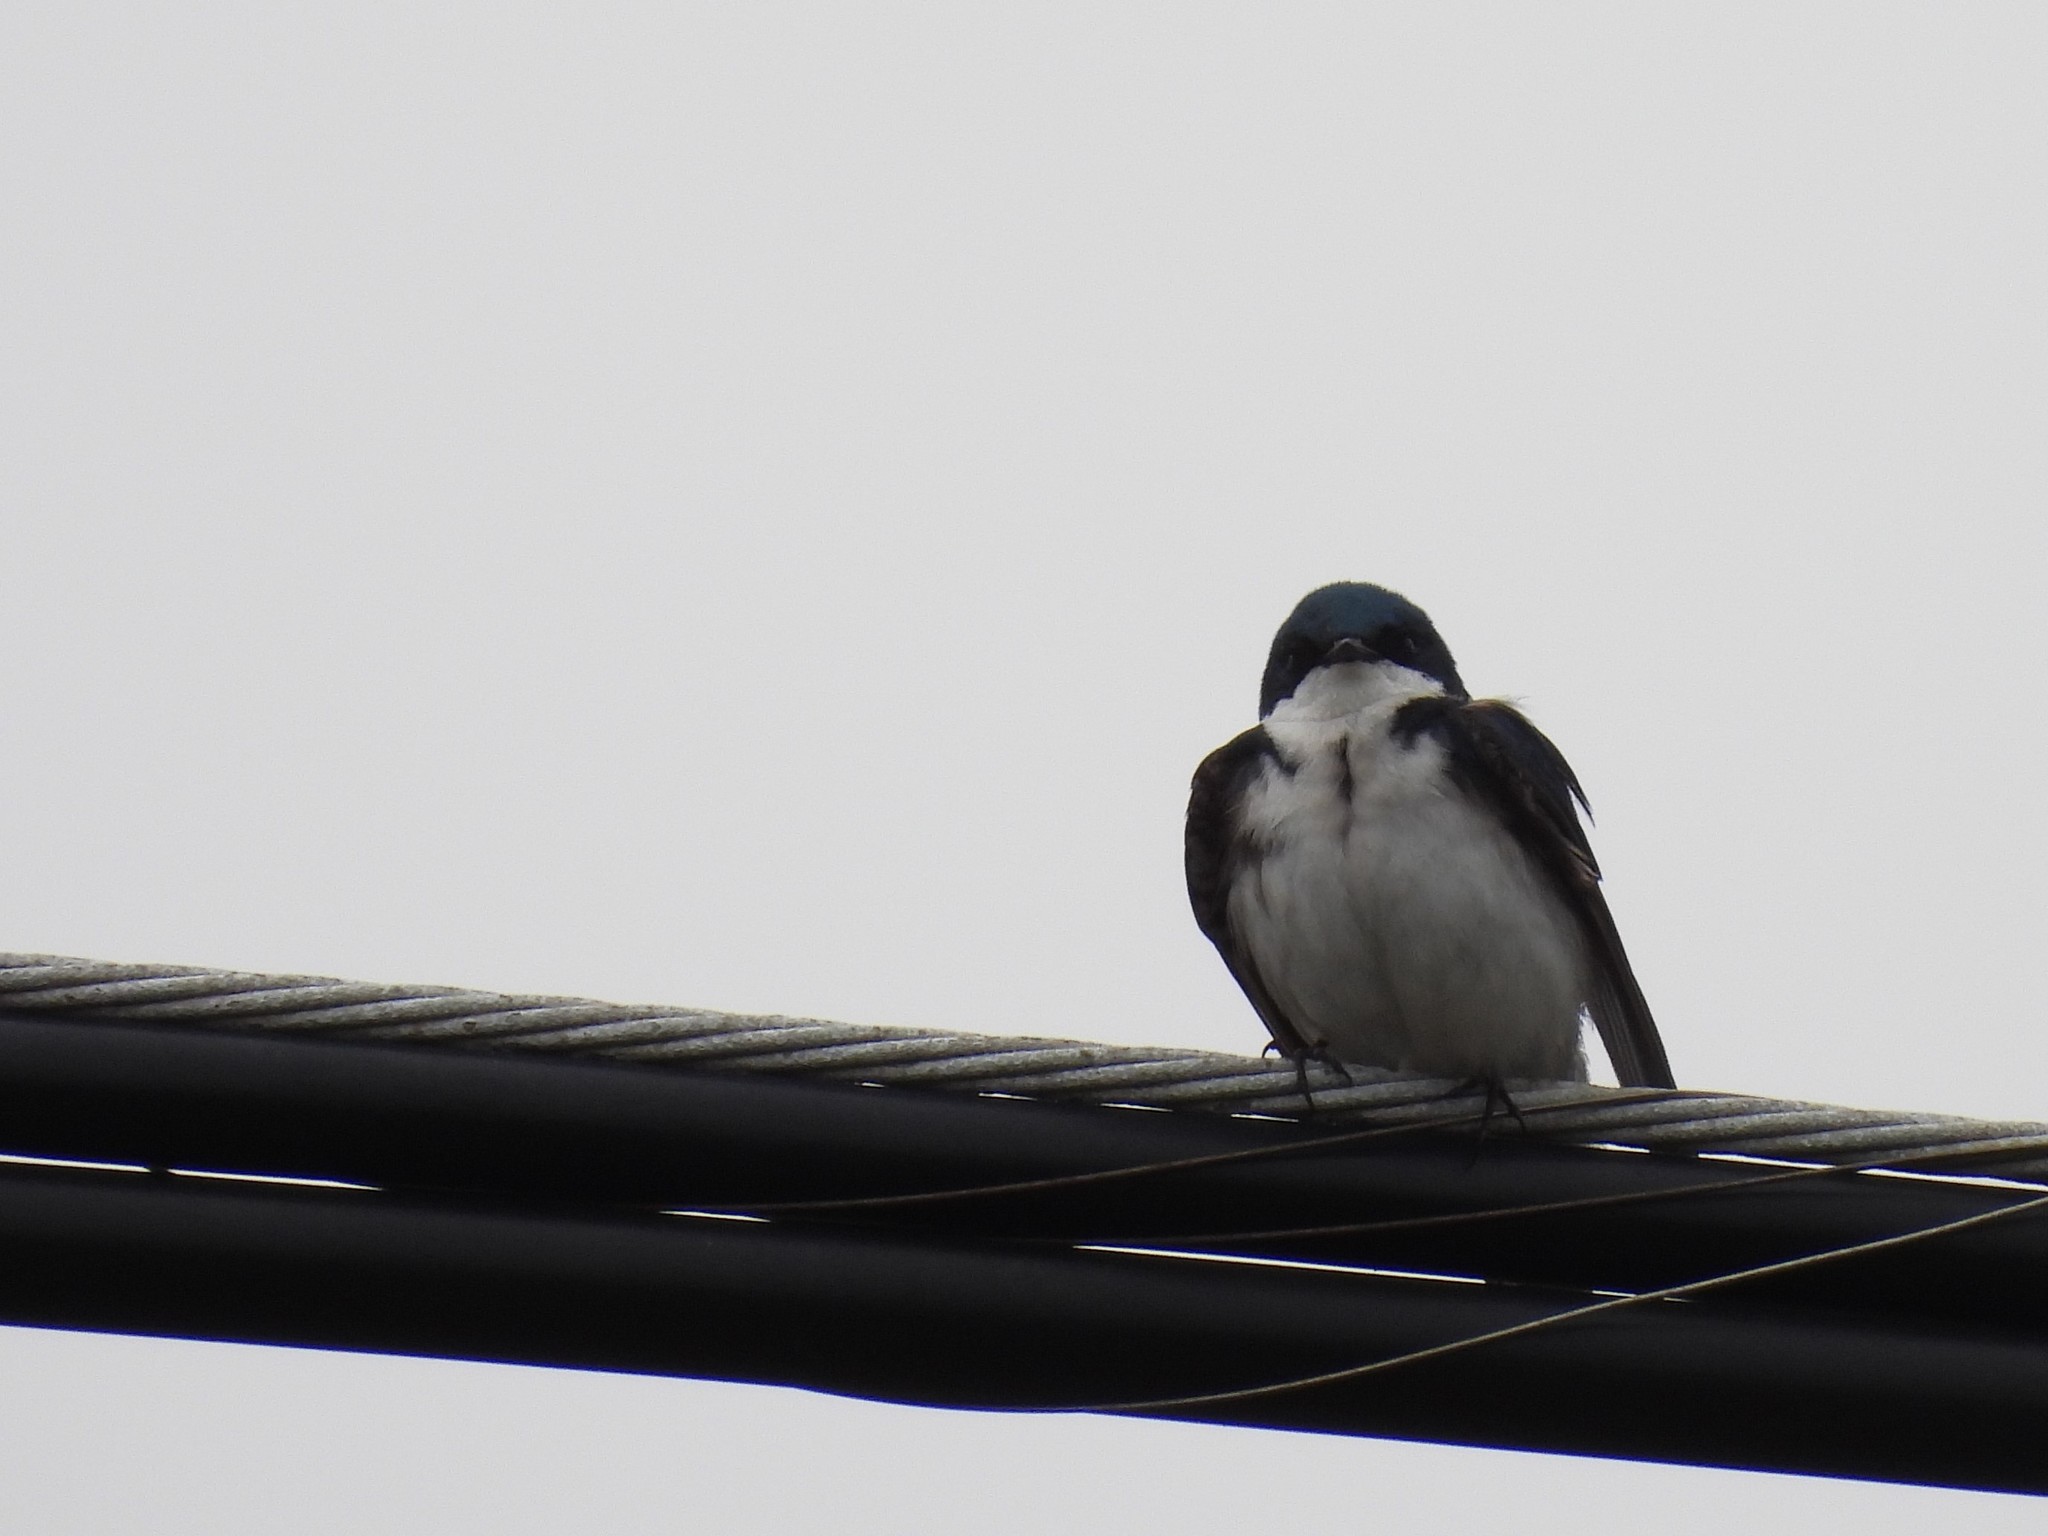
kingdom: Animalia
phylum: Chordata
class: Aves
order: Passeriformes
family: Hirundinidae
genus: Tachycineta
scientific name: Tachycineta bicolor
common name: Tree swallow
